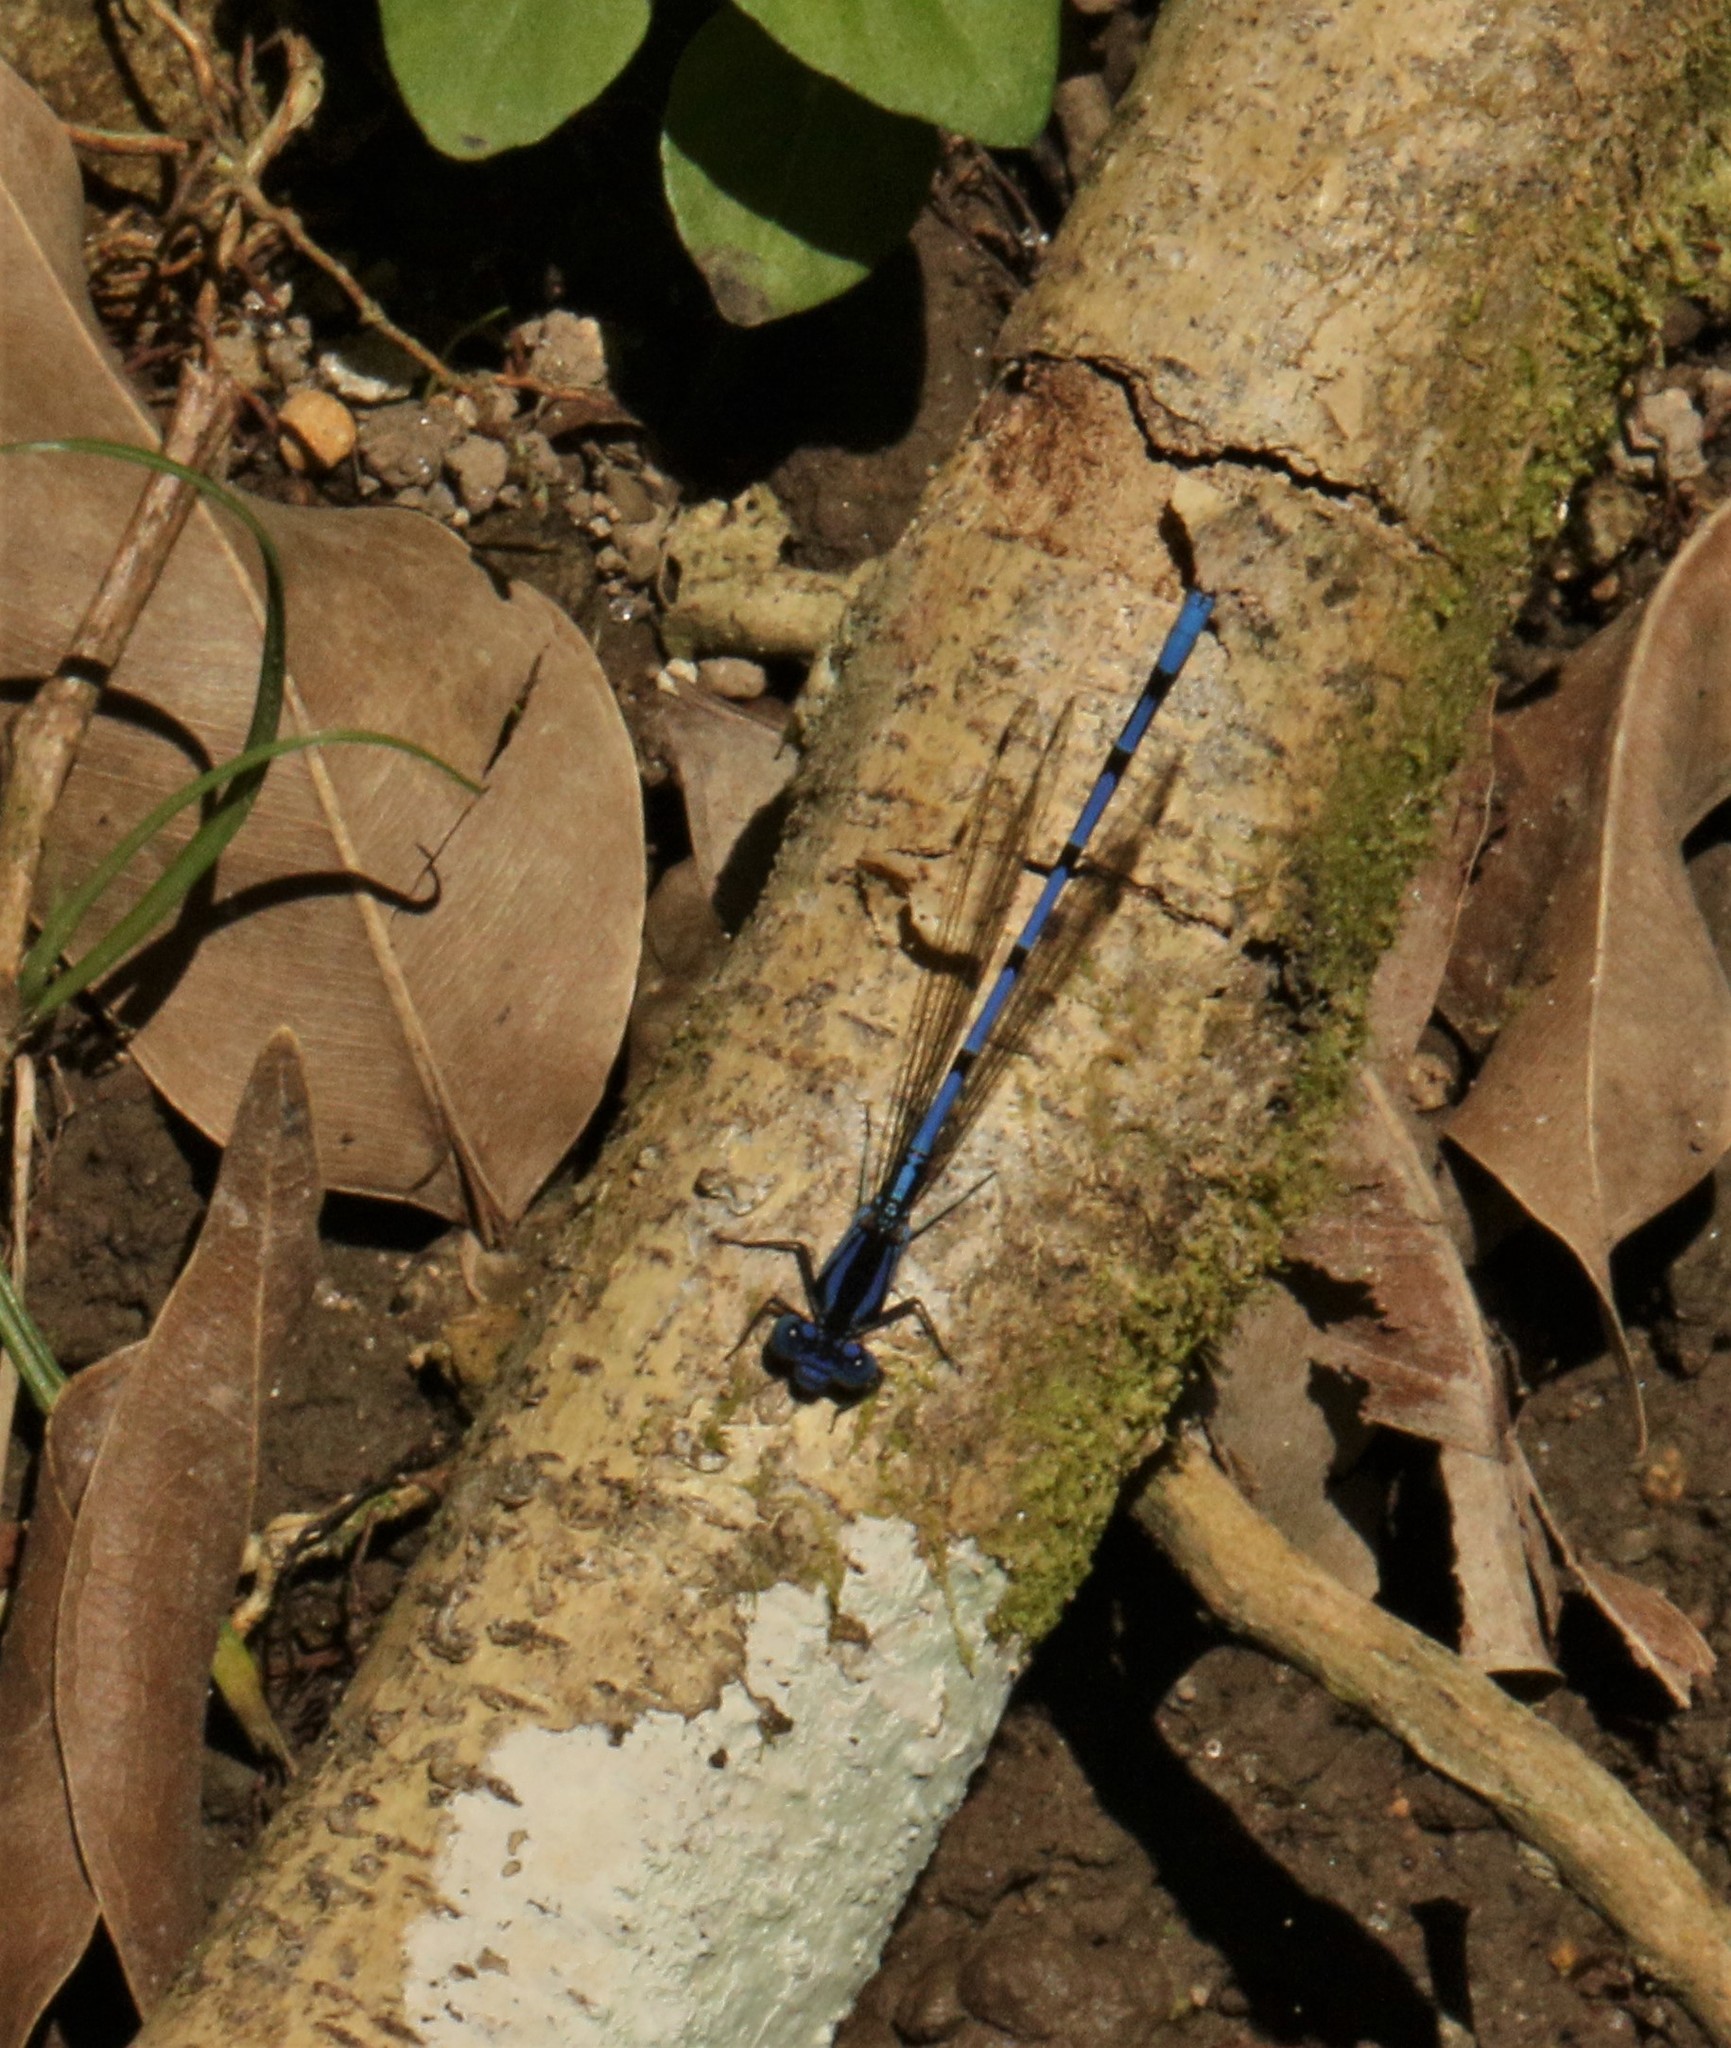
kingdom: Animalia
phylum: Arthropoda
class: Insecta
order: Odonata
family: Coenagrionidae
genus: Argia
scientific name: Argia elongata
